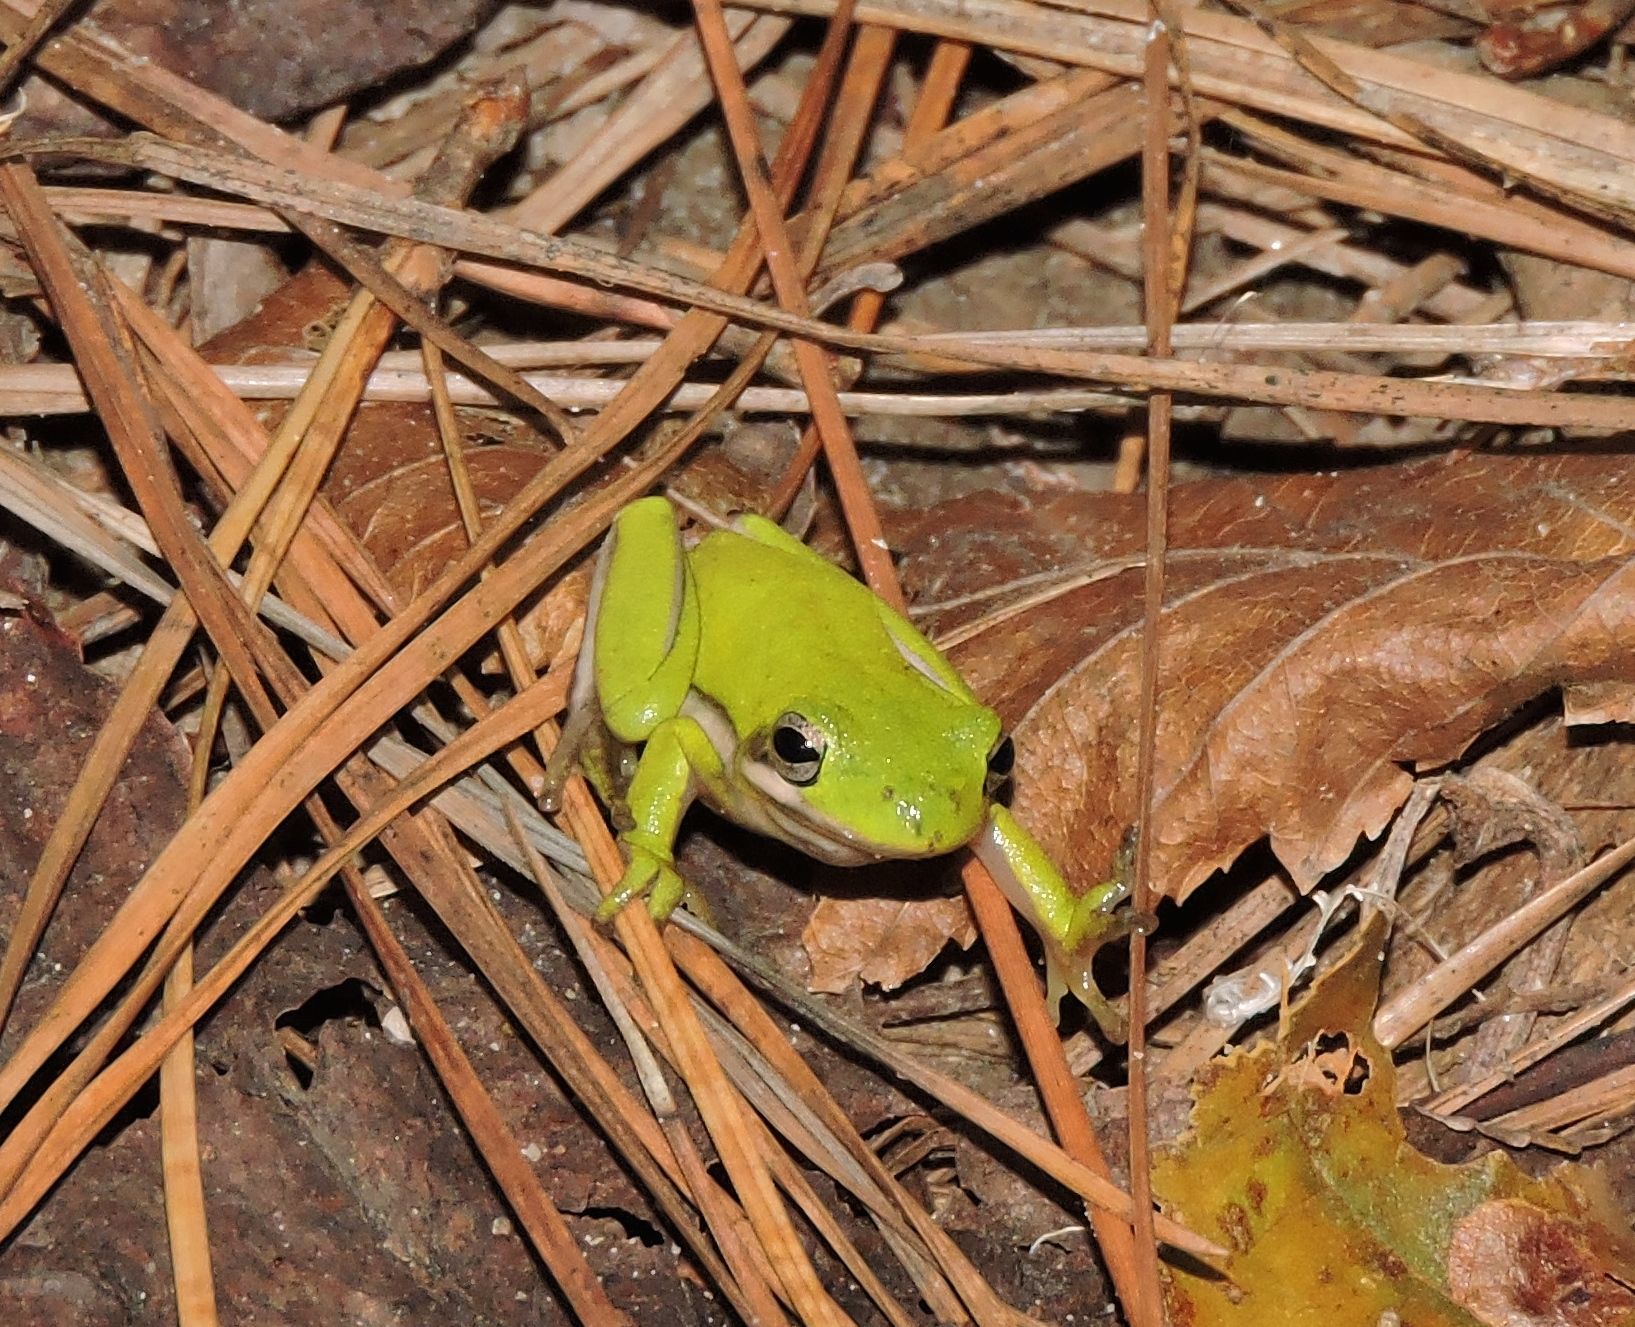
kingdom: Animalia
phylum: Chordata
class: Amphibia
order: Anura
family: Hylidae
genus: Dryophytes
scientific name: Dryophytes cinereus
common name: Green treefrog
